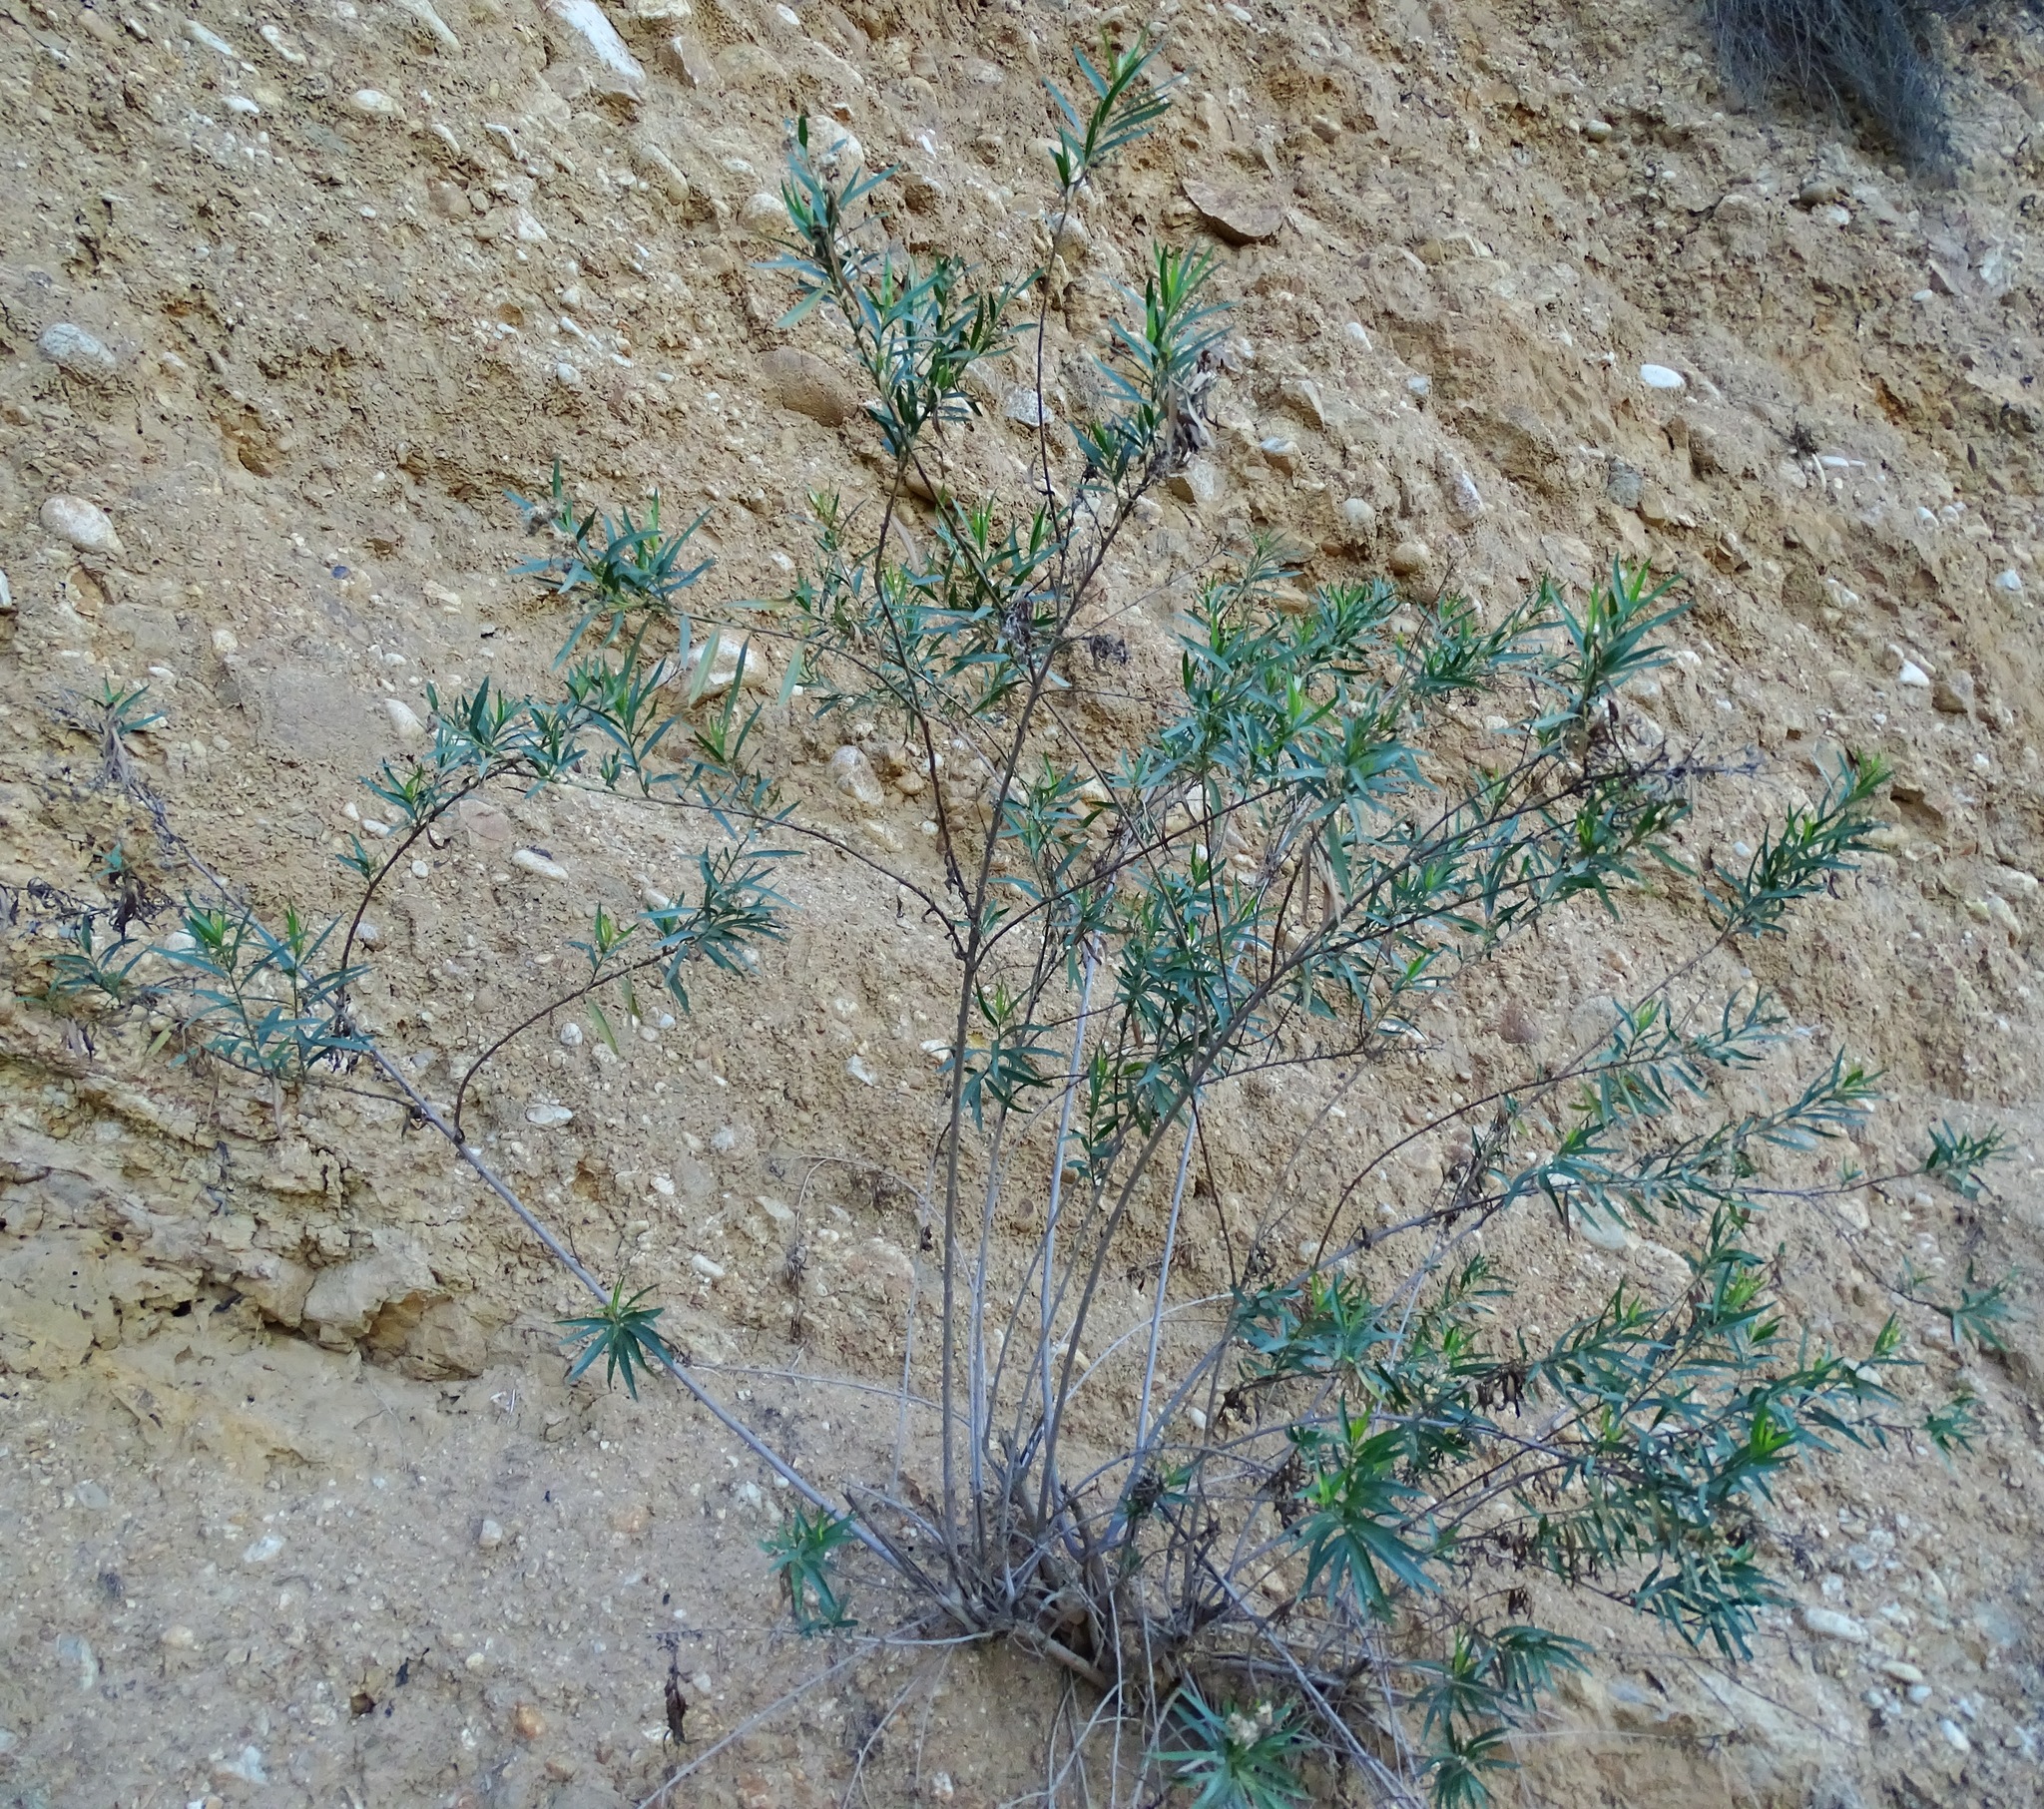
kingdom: Plantae
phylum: Tracheophyta
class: Magnoliopsida
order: Asterales
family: Asteraceae
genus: Baccharis
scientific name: Baccharis salicifolia
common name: Sticky baccharis
